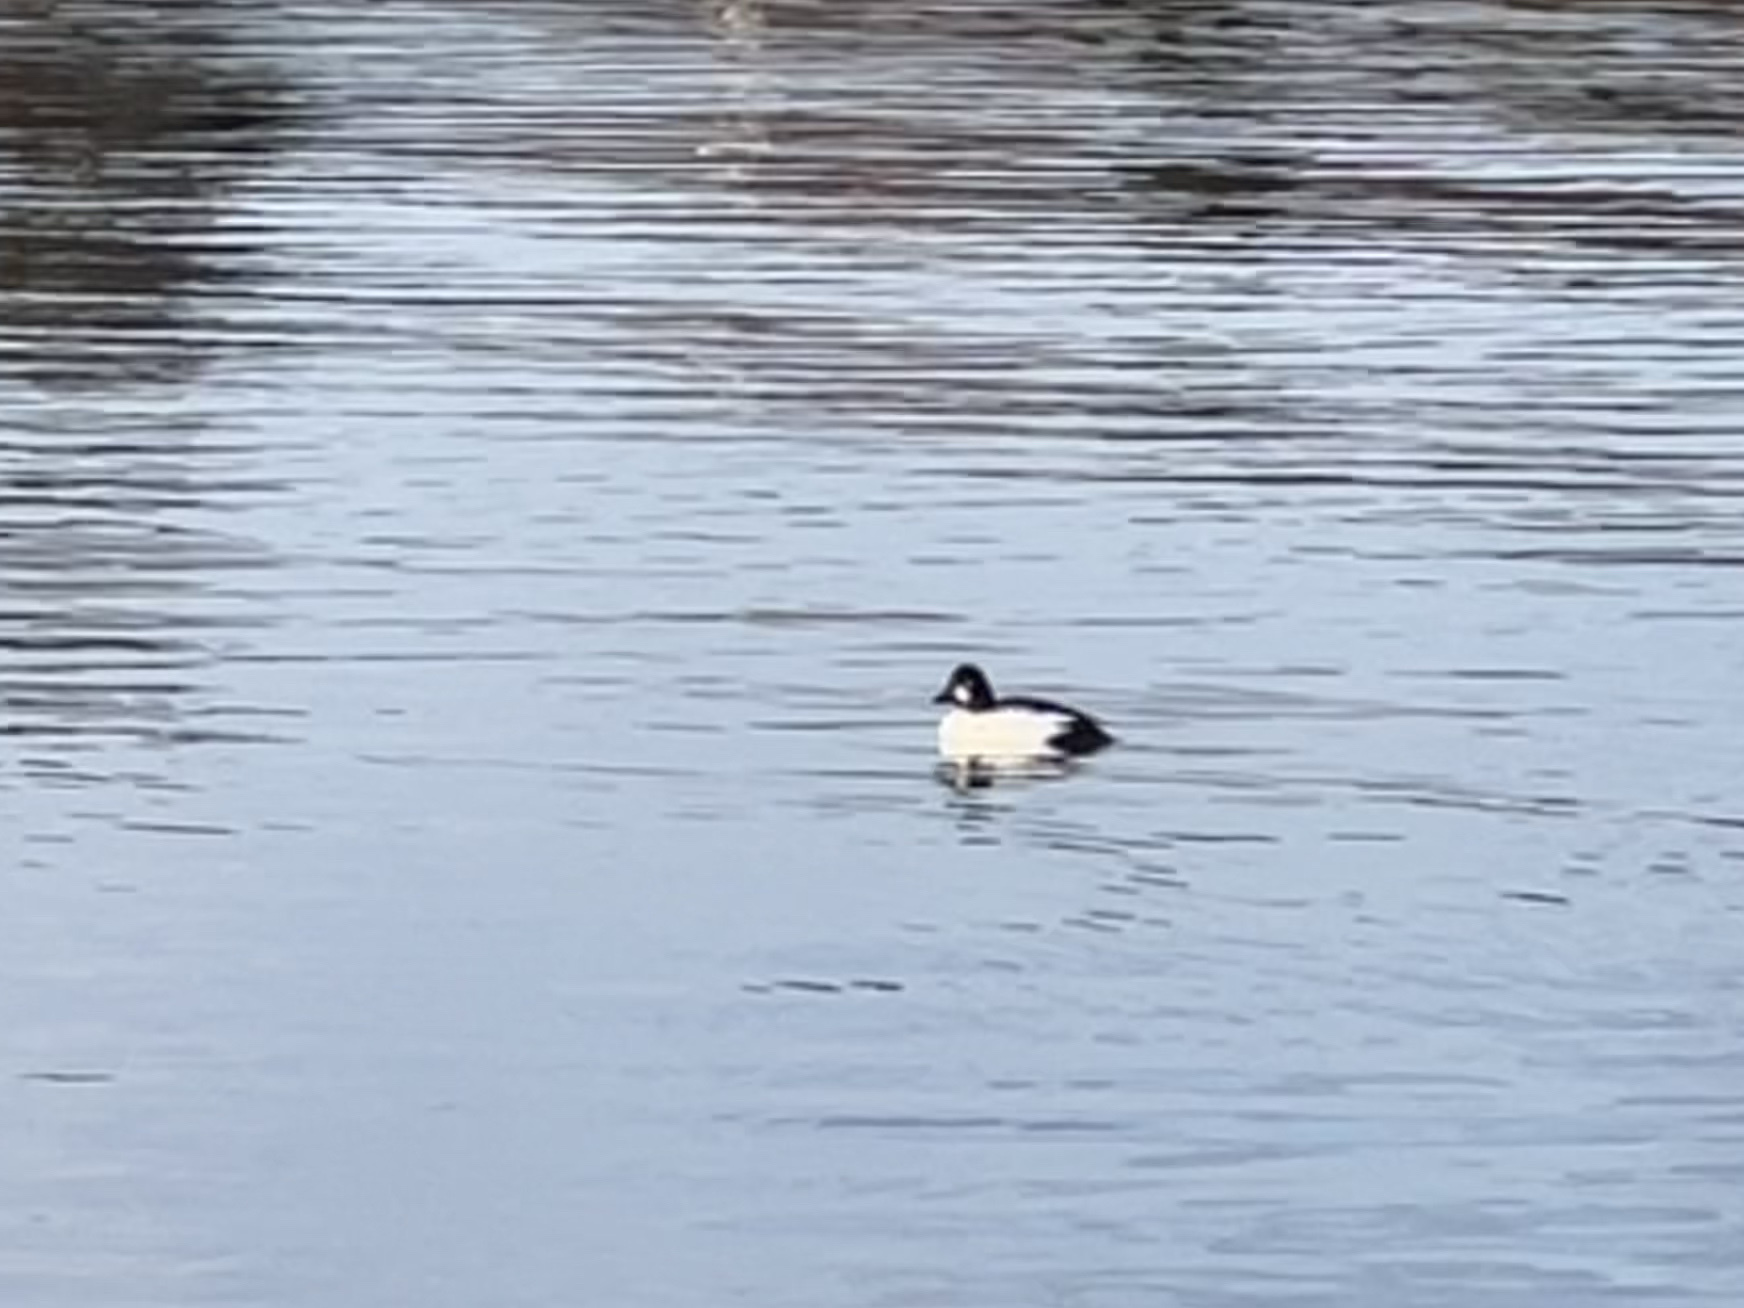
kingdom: Animalia
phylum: Chordata
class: Aves
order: Anseriformes
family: Anatidae
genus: Bucephala
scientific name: Bucephala clangula
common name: Common goldeneye
